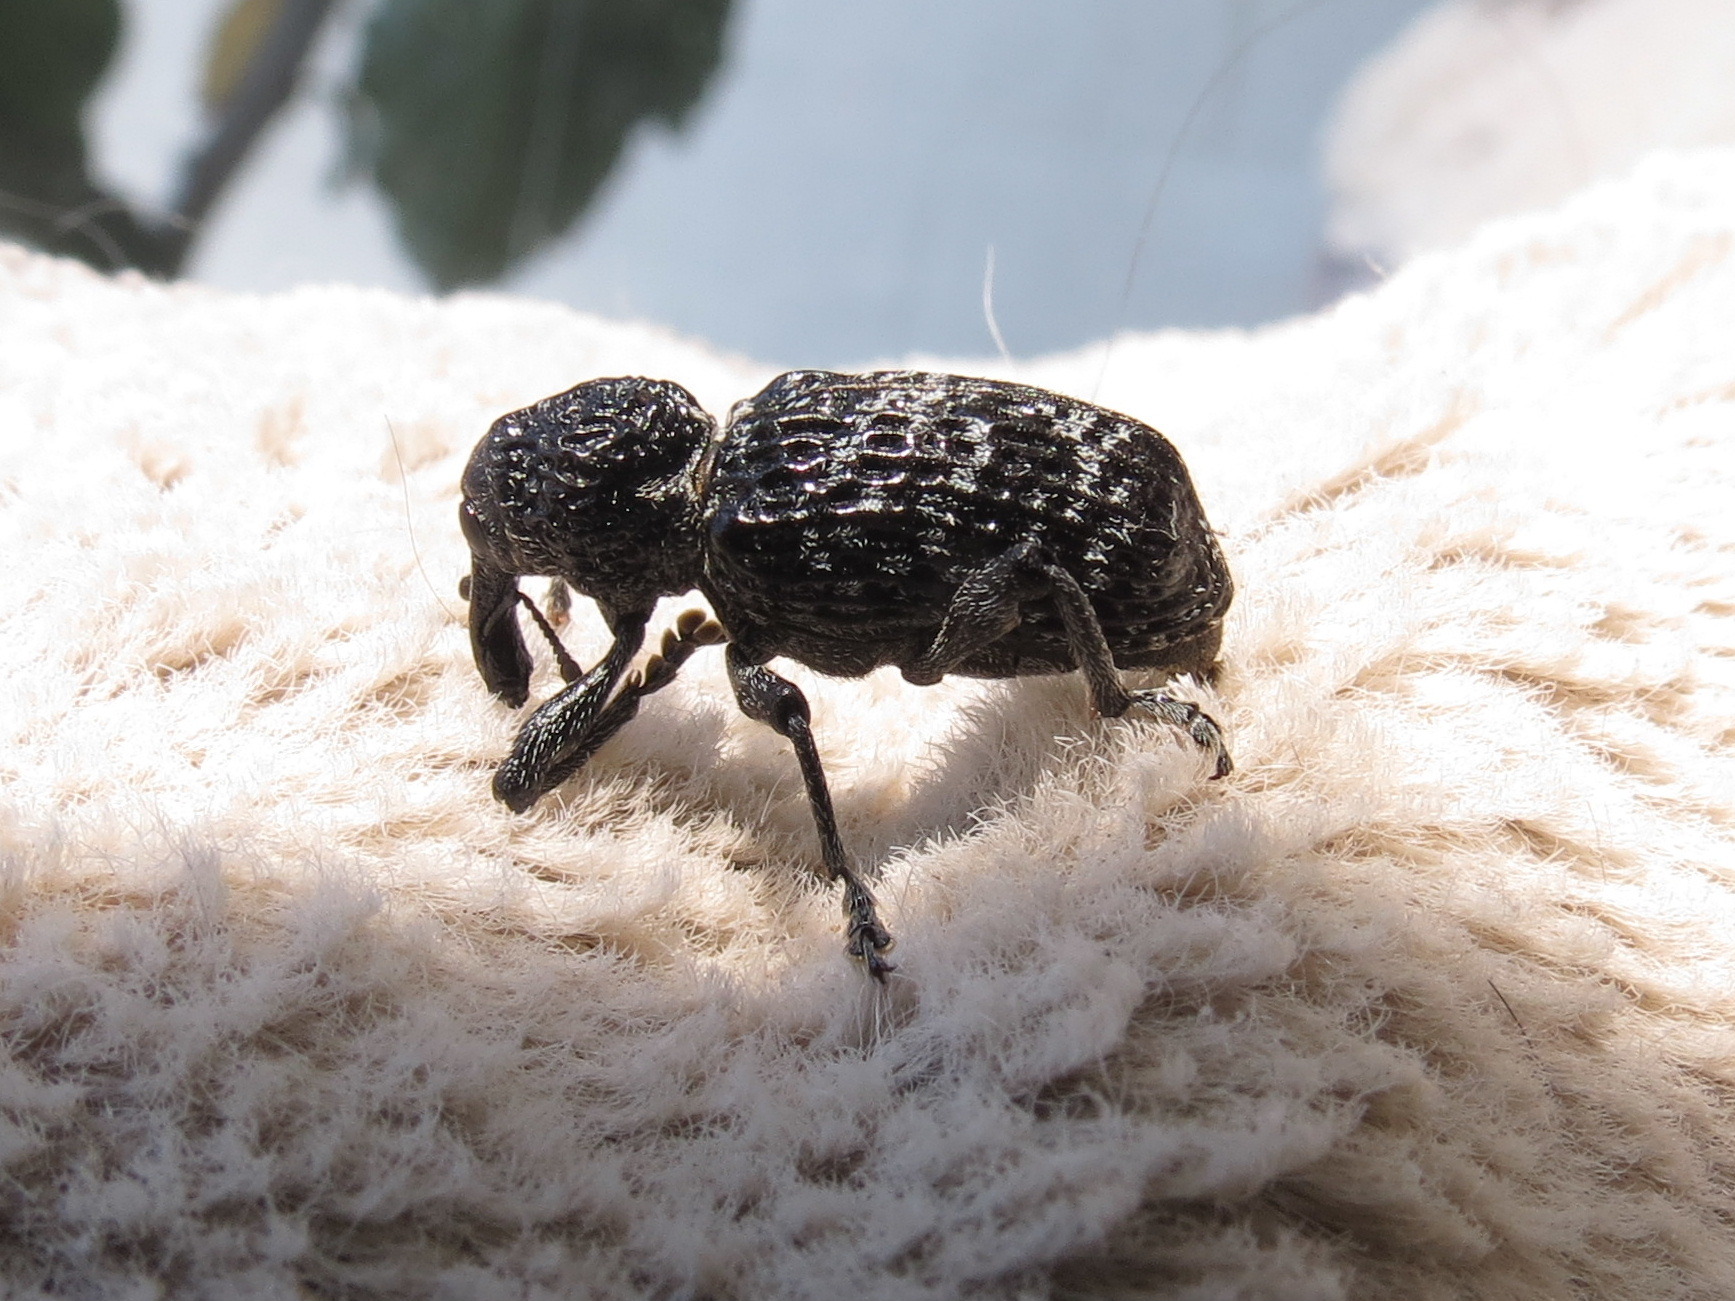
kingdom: Animalia
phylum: Arthropoda
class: Insecta
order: Coleoptera
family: Curculionidae
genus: Chrysolopus
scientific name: Chrysolopus detritus
